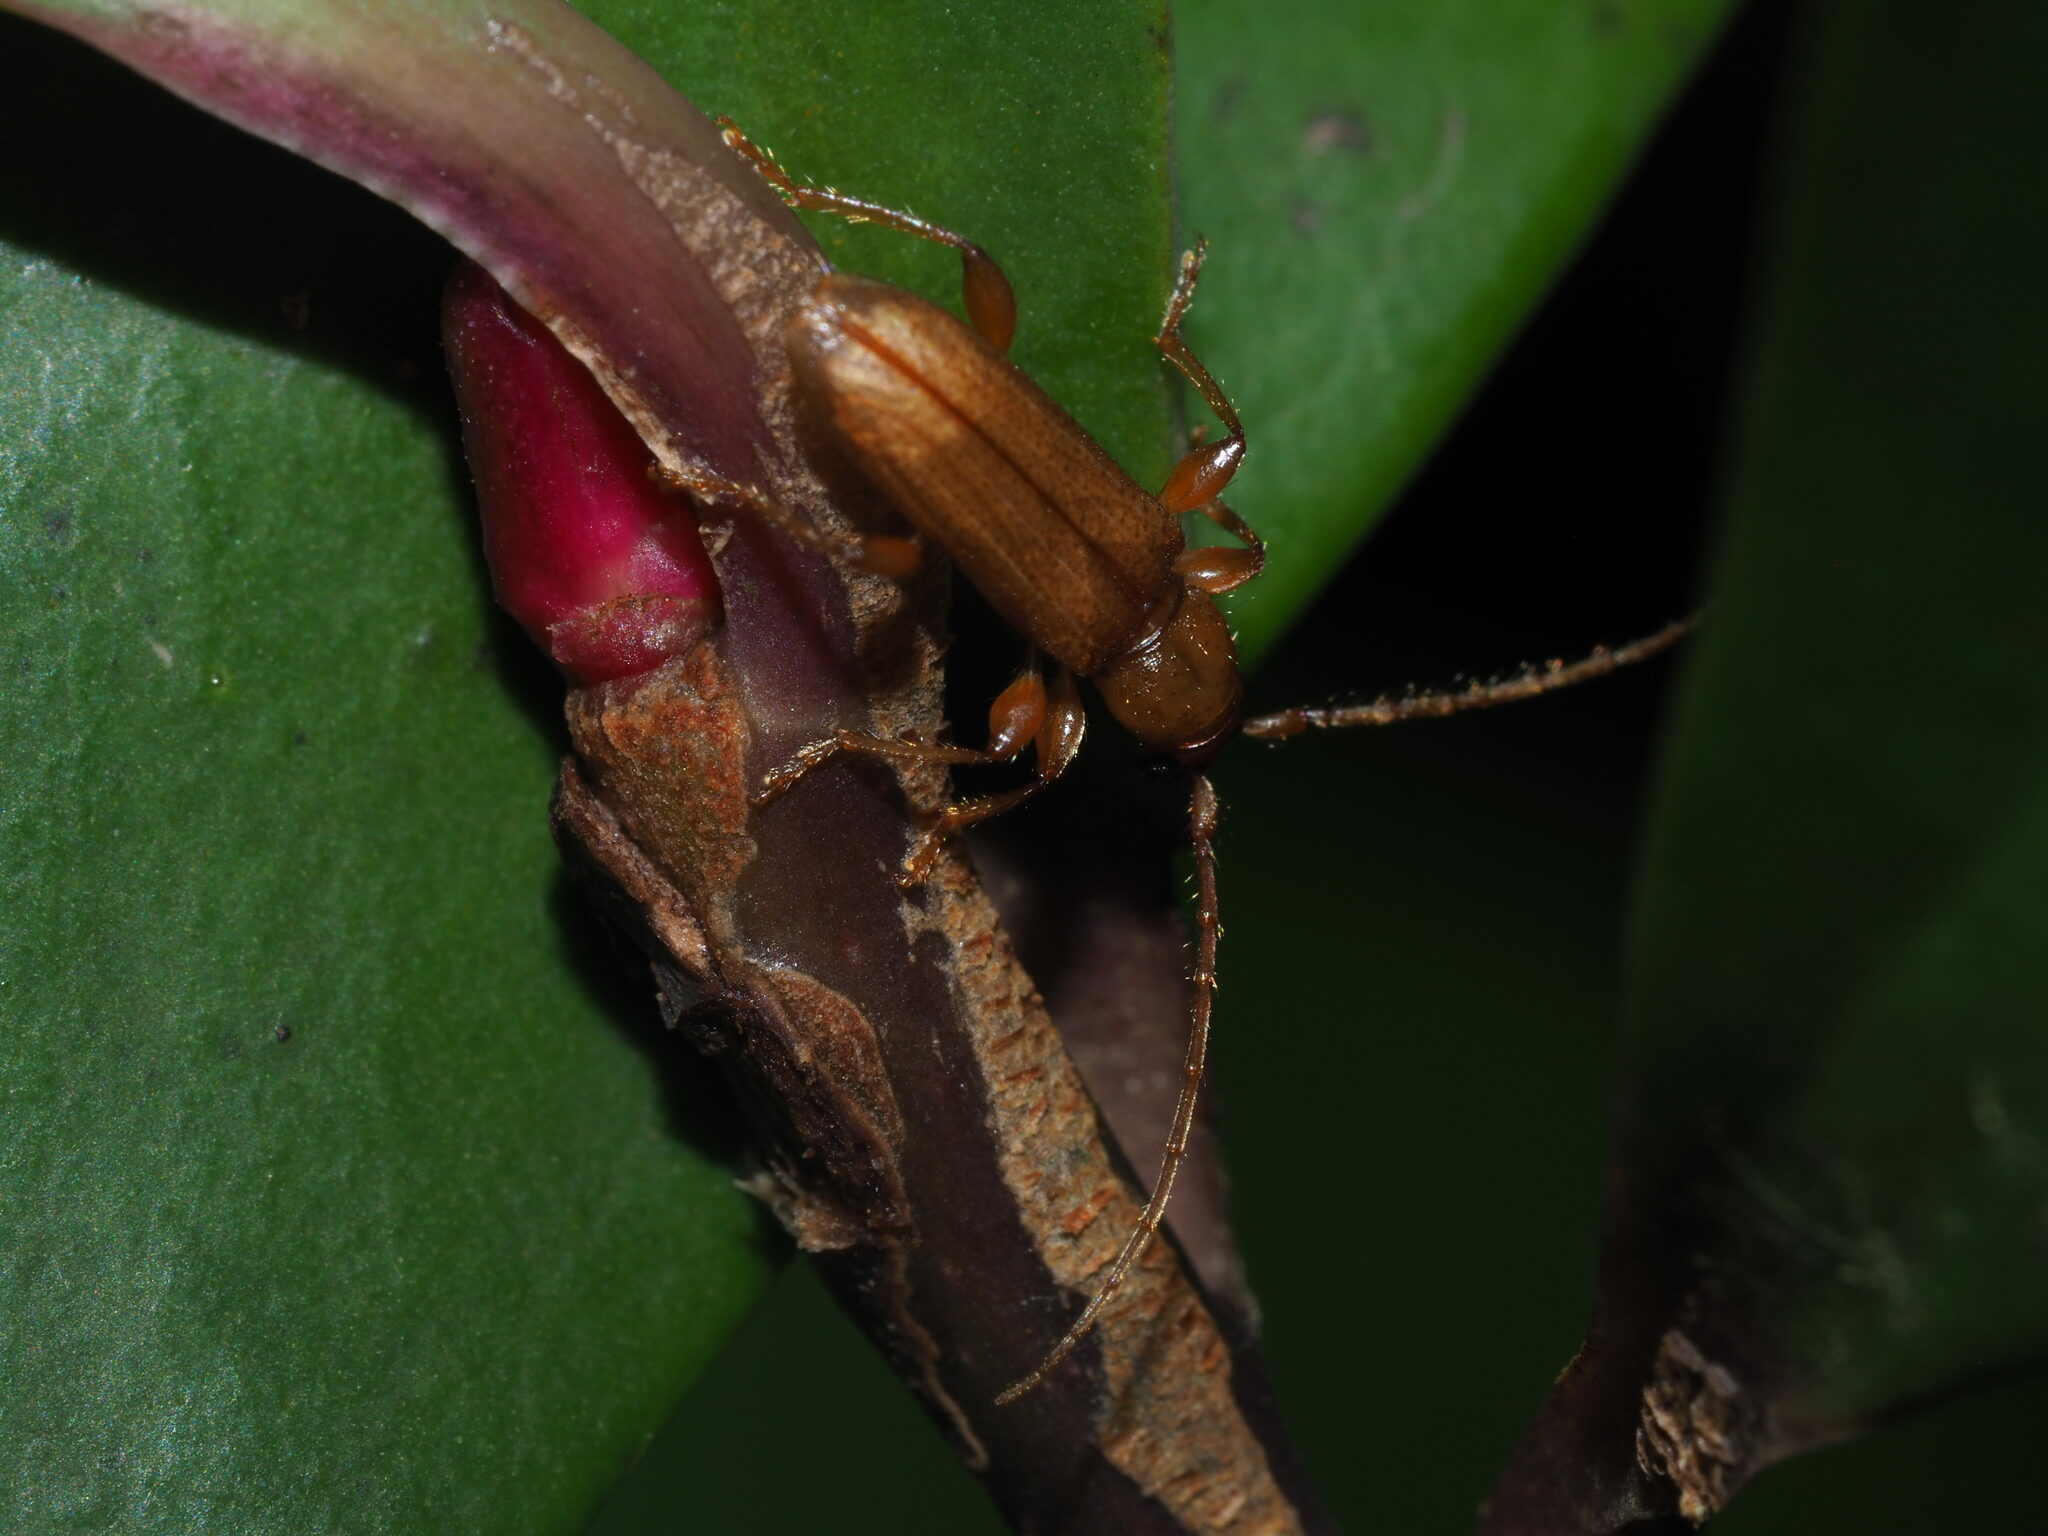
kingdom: Animalia
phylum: Arthropoda
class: Insecta
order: Coleoptera
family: Cerambycidae
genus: Curtomerus
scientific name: Curtomerus flavus
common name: Curtomerus long-horned beetle
